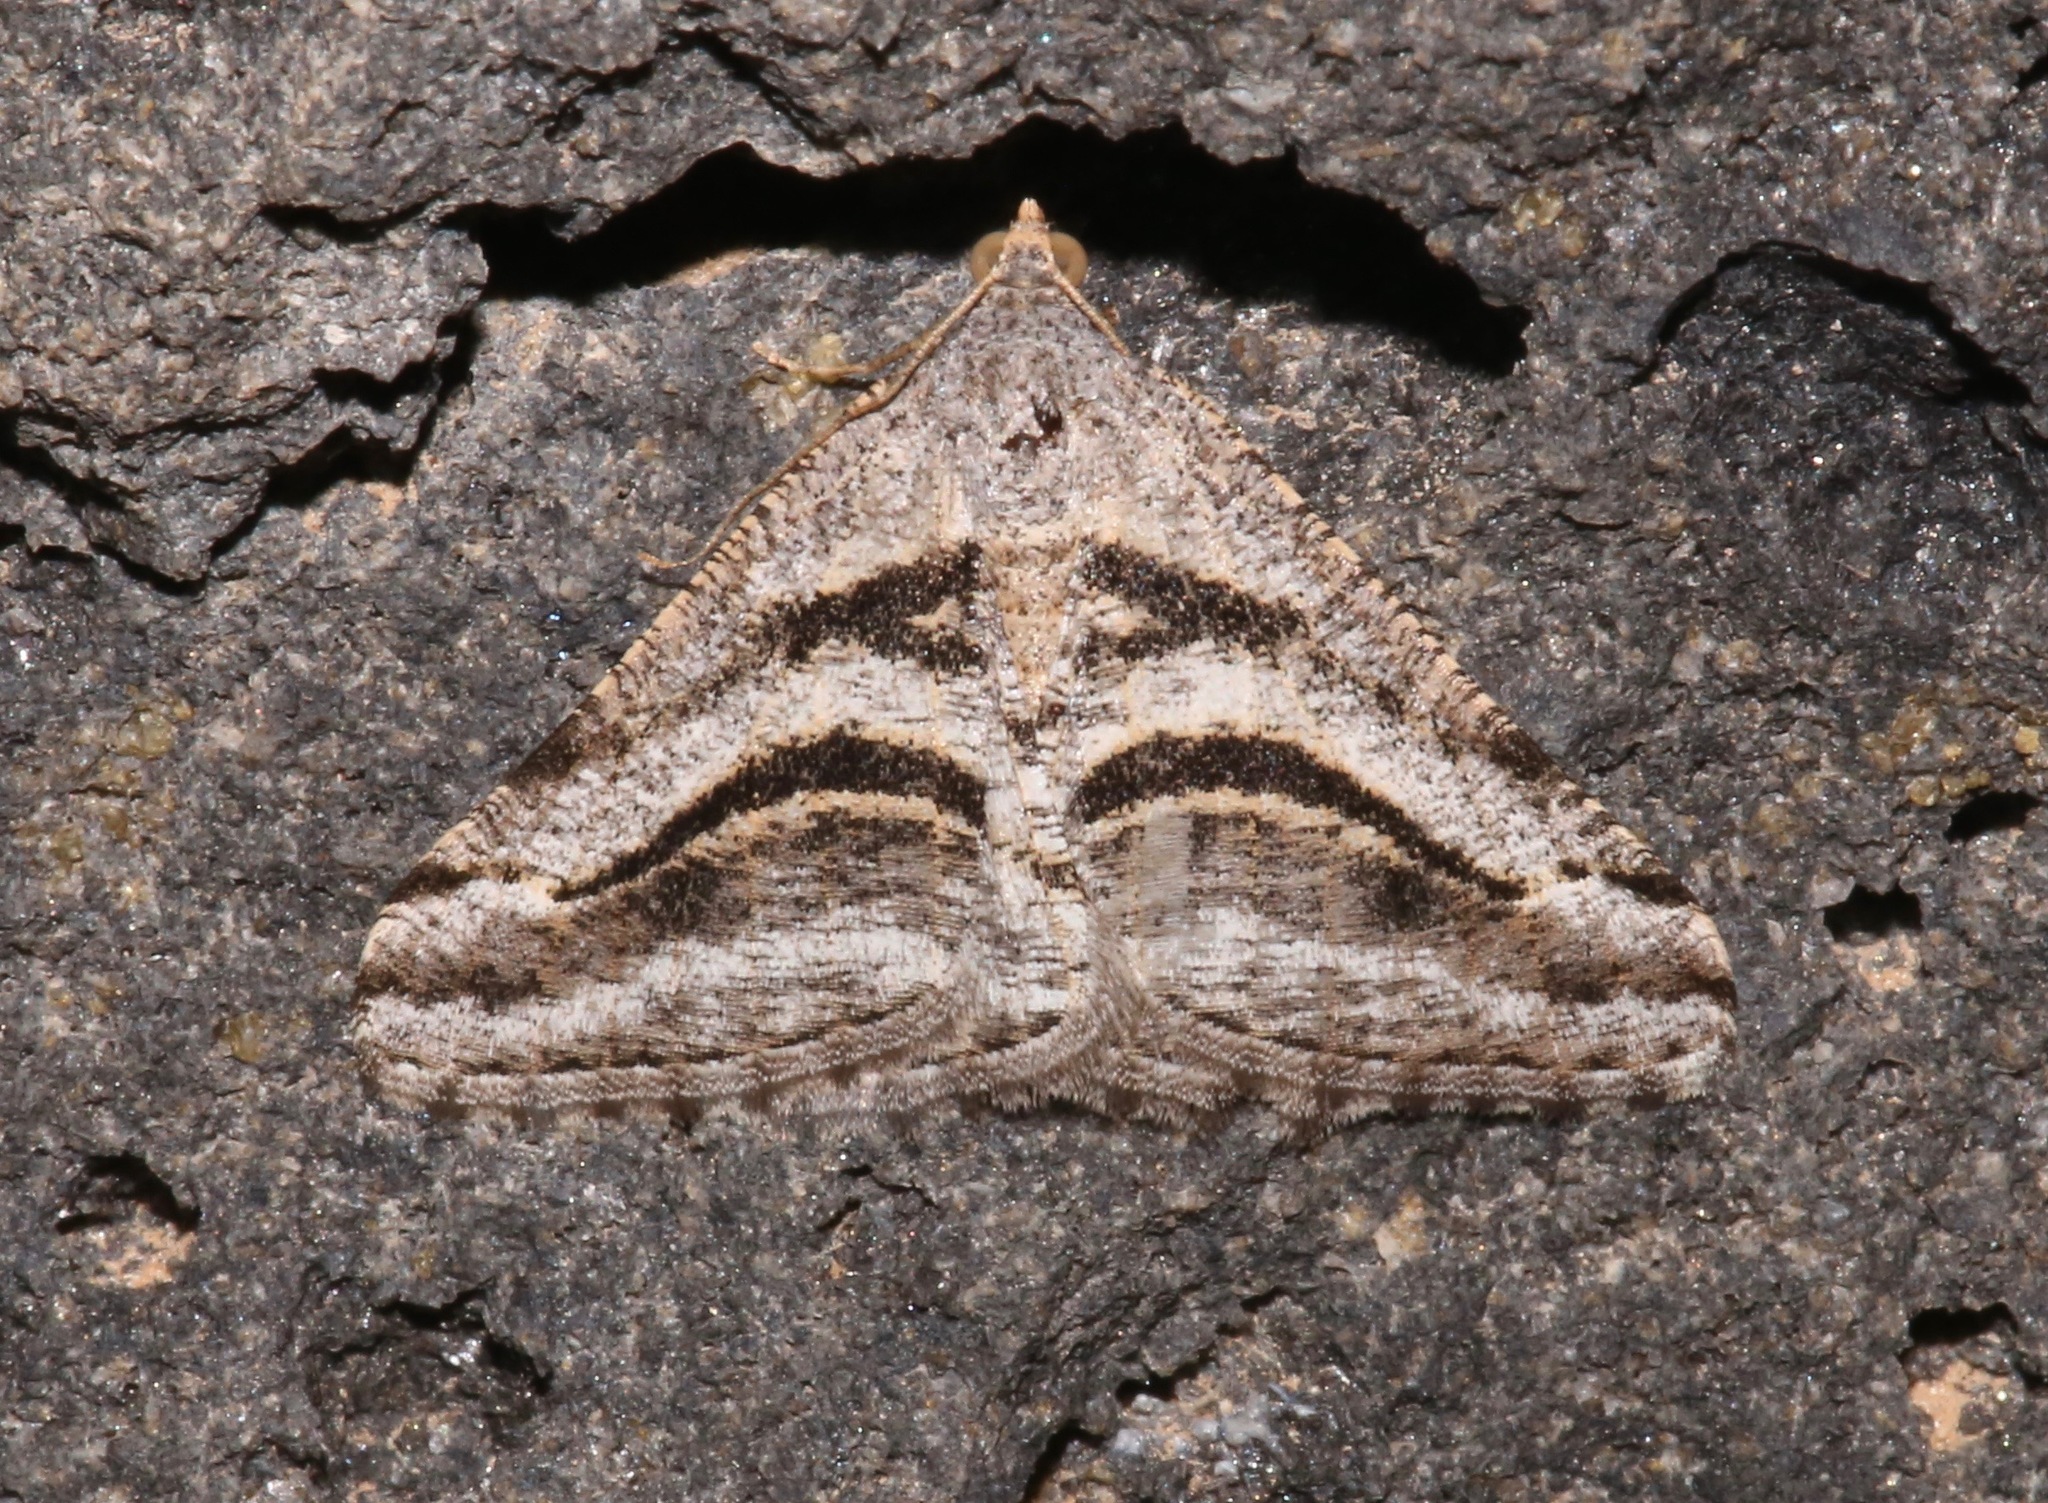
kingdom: Animalia
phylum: Arthropoda
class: Insecta
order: Lepidoptera
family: Geometridae
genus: Digrammia
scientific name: Digrammia curvata
